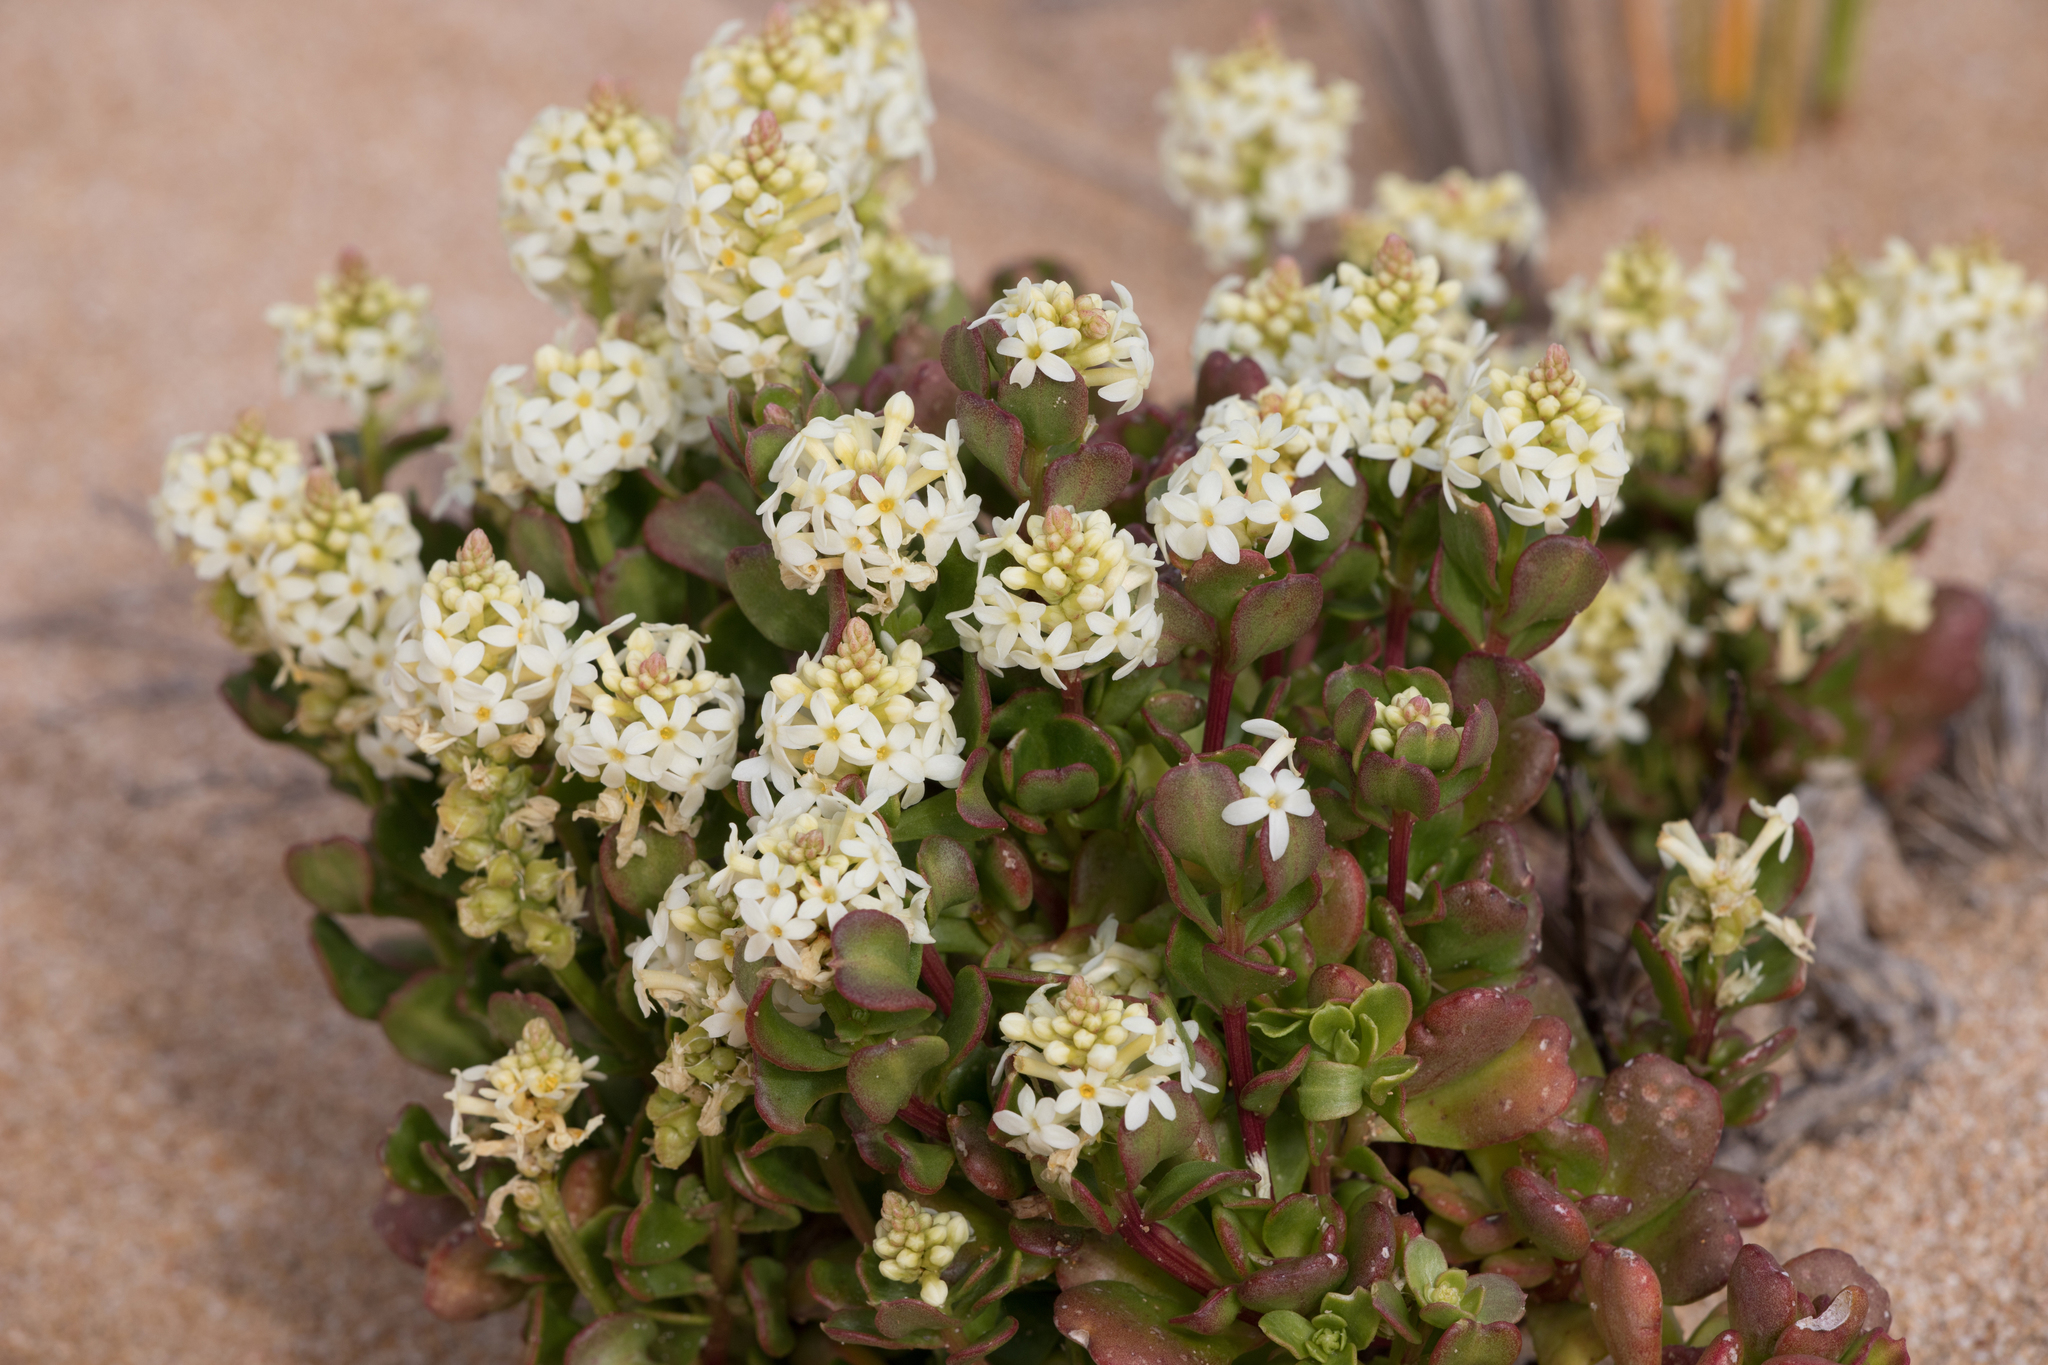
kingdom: Plantae
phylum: Tracheophyta
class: Magnoliopsida
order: Celastrales
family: Celastraceae
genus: Stackhousia
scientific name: Stackhousia spathulata
